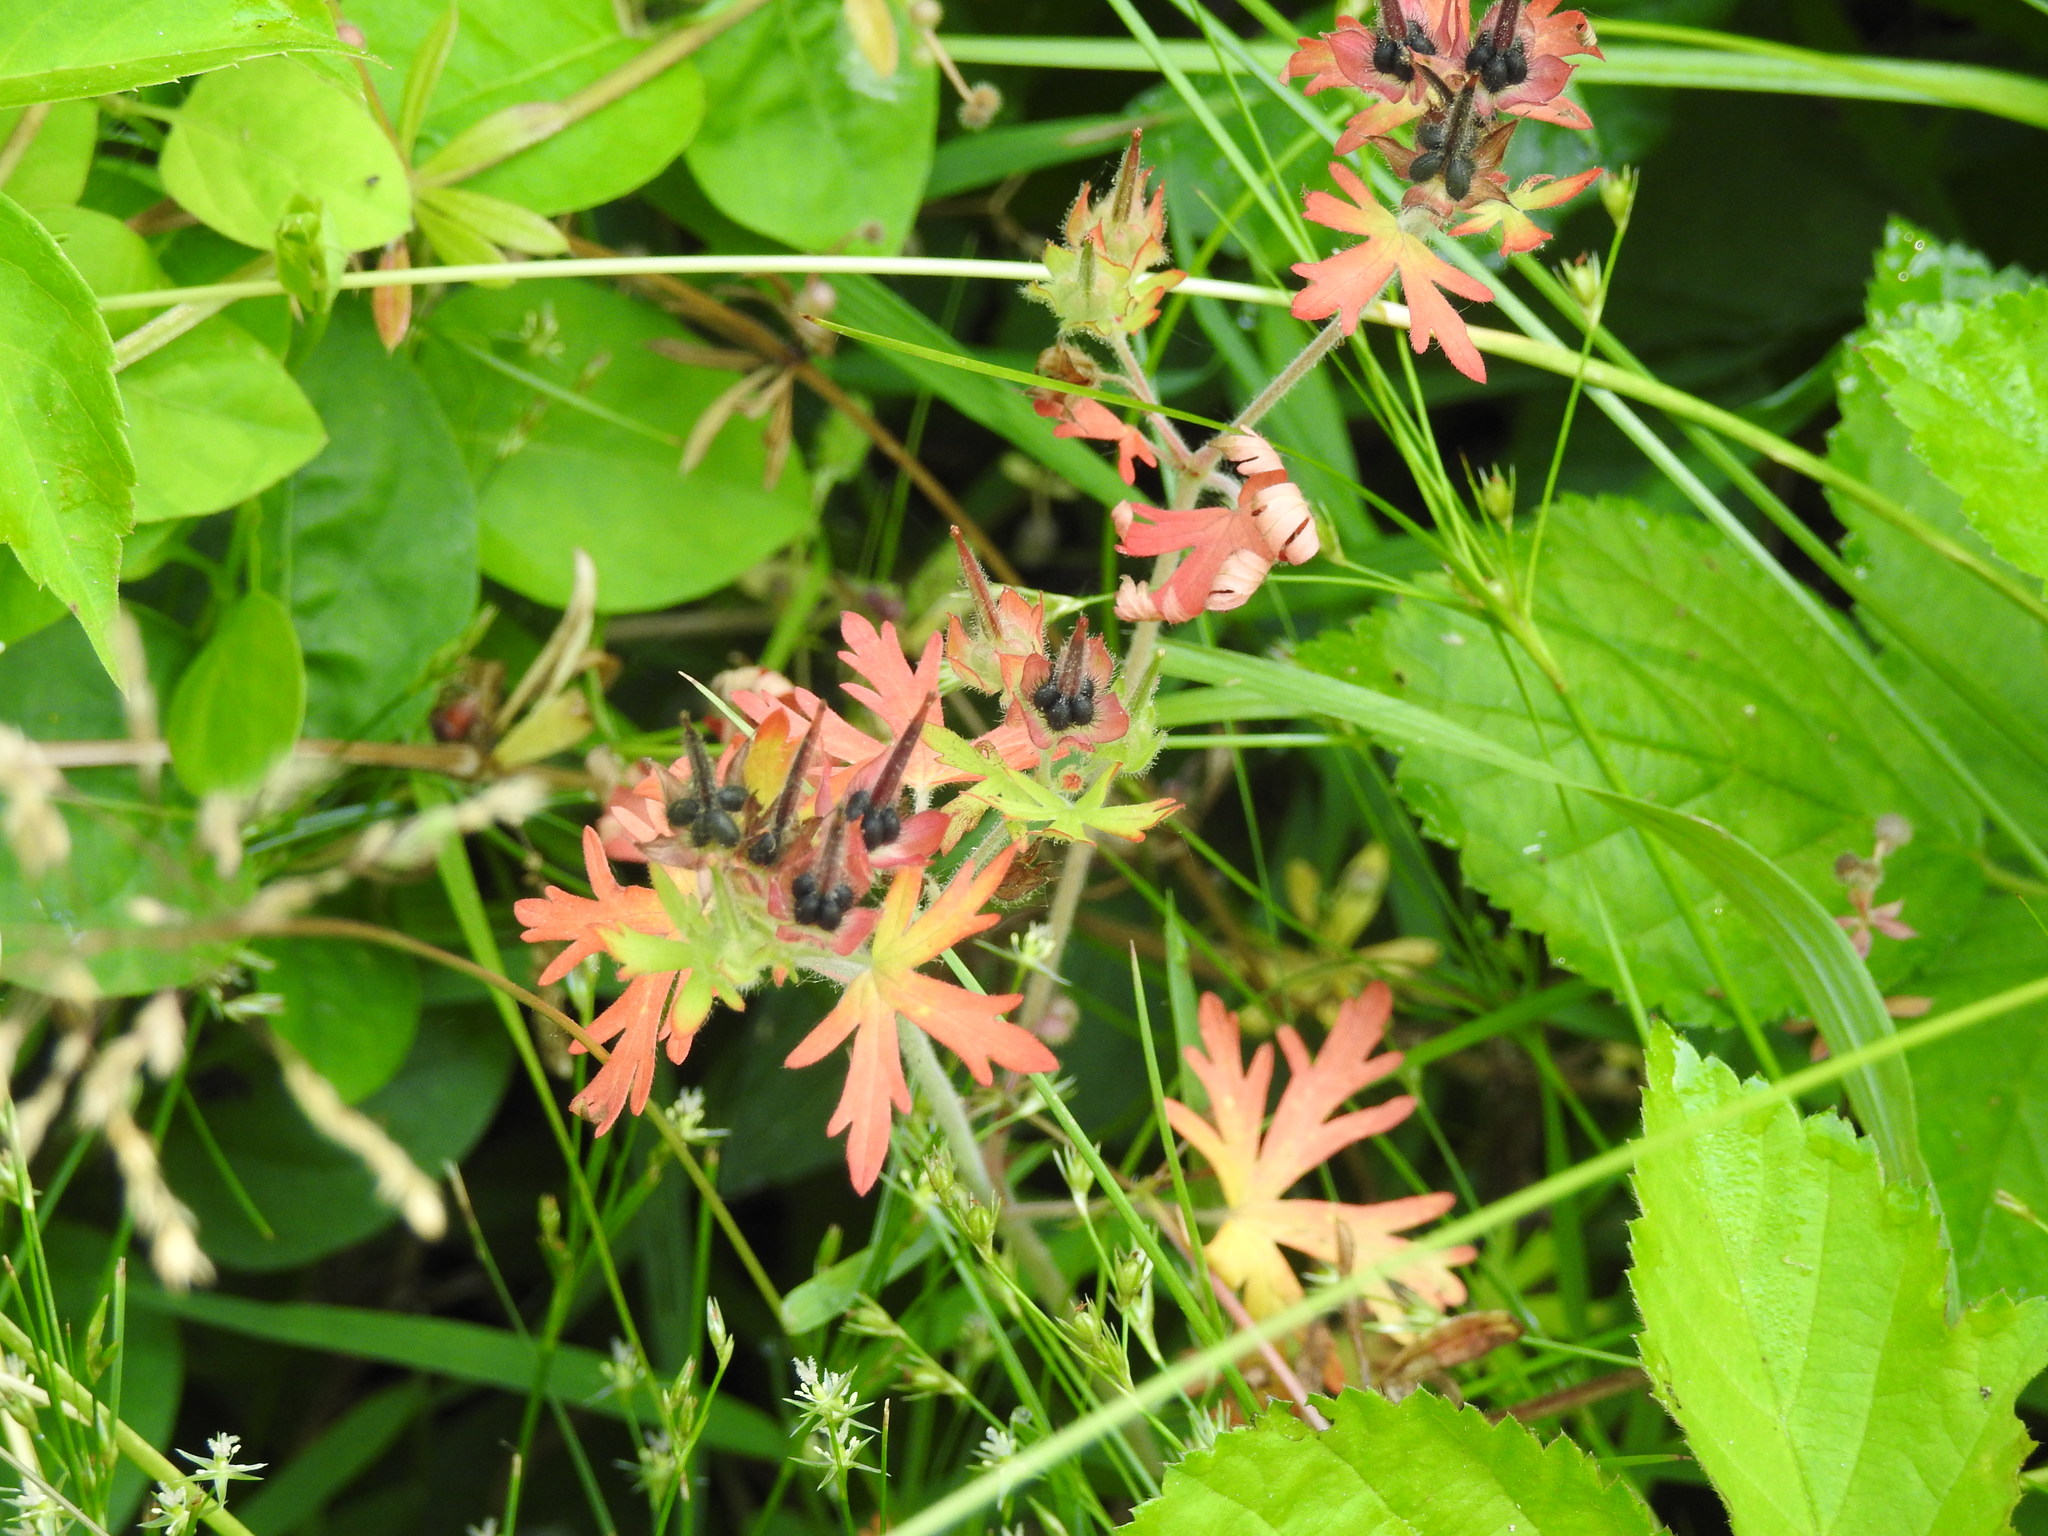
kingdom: Plantae
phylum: Tracheophyta
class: Magnoliopsida
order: Geraniales
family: Geraniaceae
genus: Geranium
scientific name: Geranium carolinianum
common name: Carolina crane's-bill
